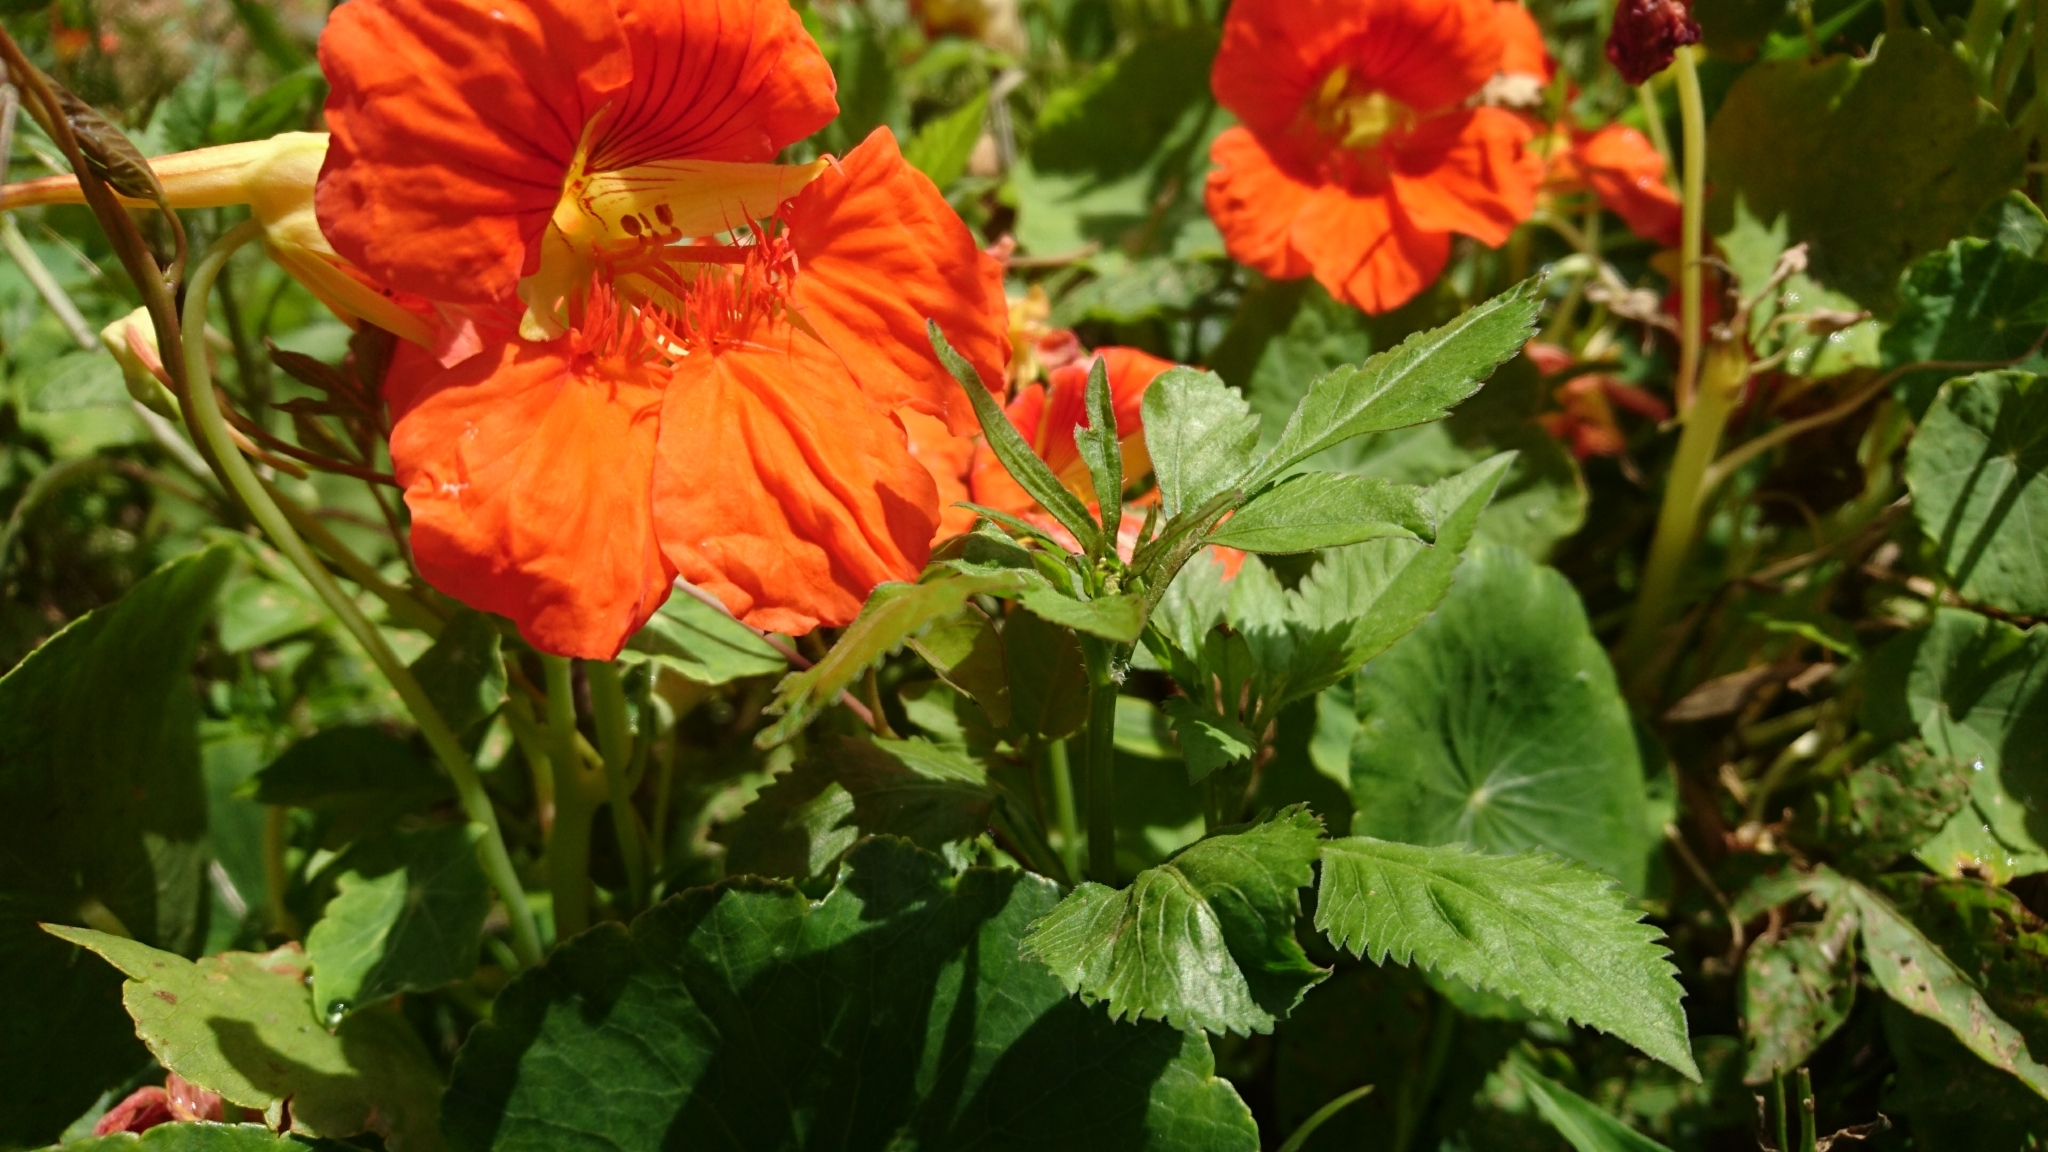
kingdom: Plantae
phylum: Tracheophyta
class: Magnoliopsida
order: Brassicales
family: Tropaeolaceae
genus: Tropaeolum
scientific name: Tropaeolum majus
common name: Nasturtium
